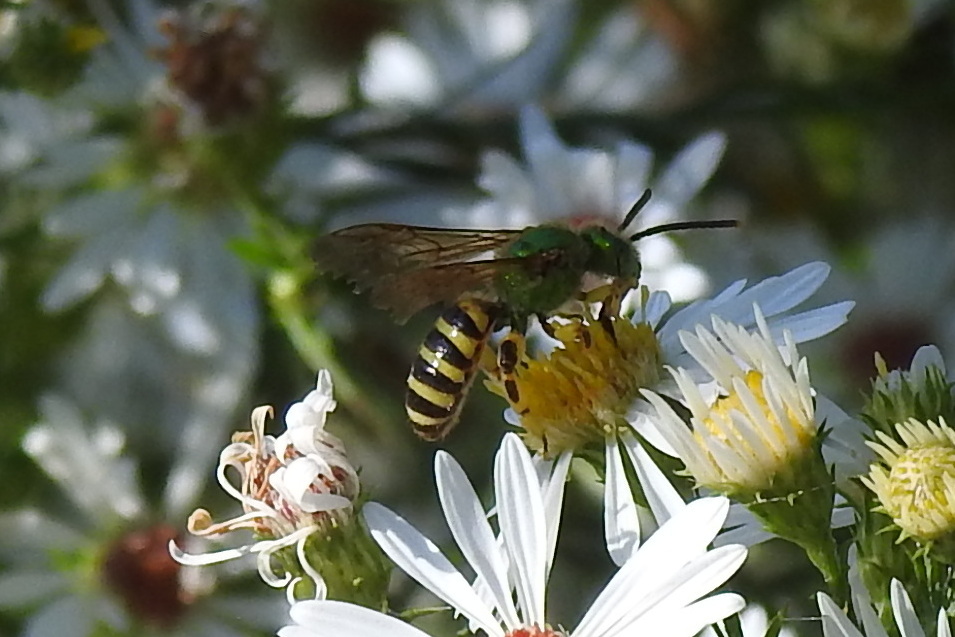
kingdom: Animalia
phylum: Arthropoda
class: Insecta
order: Hymenoptera
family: Halictidae
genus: Agapostemon
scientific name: Agapostemon splendens
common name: Brown-winged striped sweat bee
